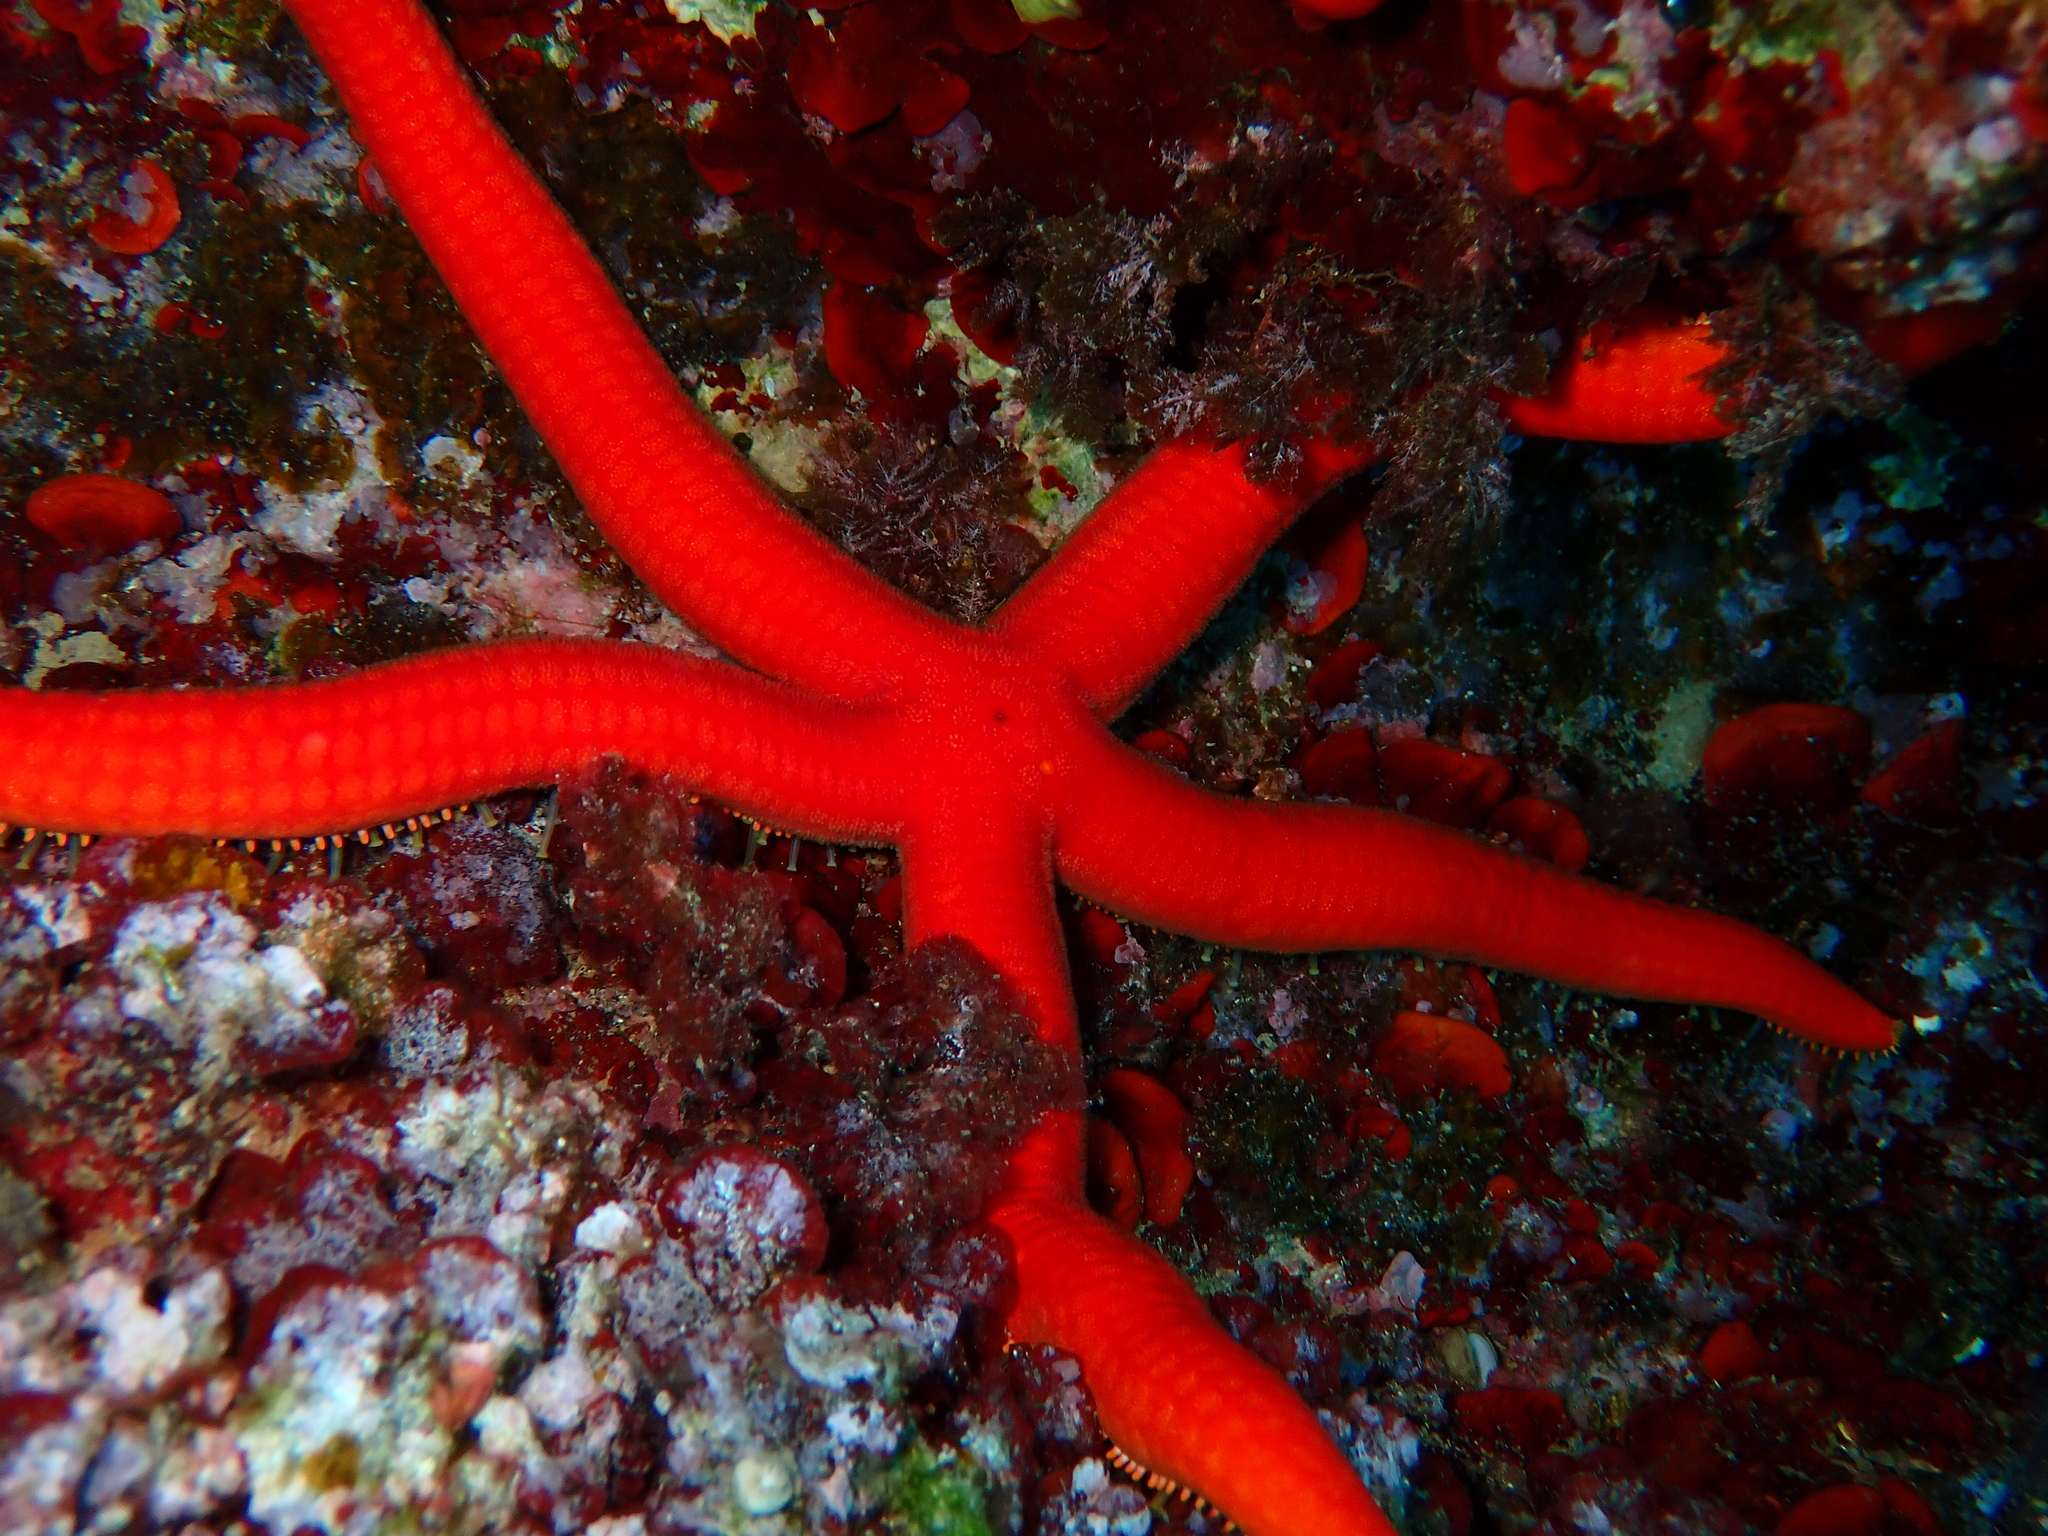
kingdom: Animalia
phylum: Echinodermata
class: Asteroidea
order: Valvatida
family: Ophidiasteridae
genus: Ophidiaster
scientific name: Ophidiaster ophidianus
